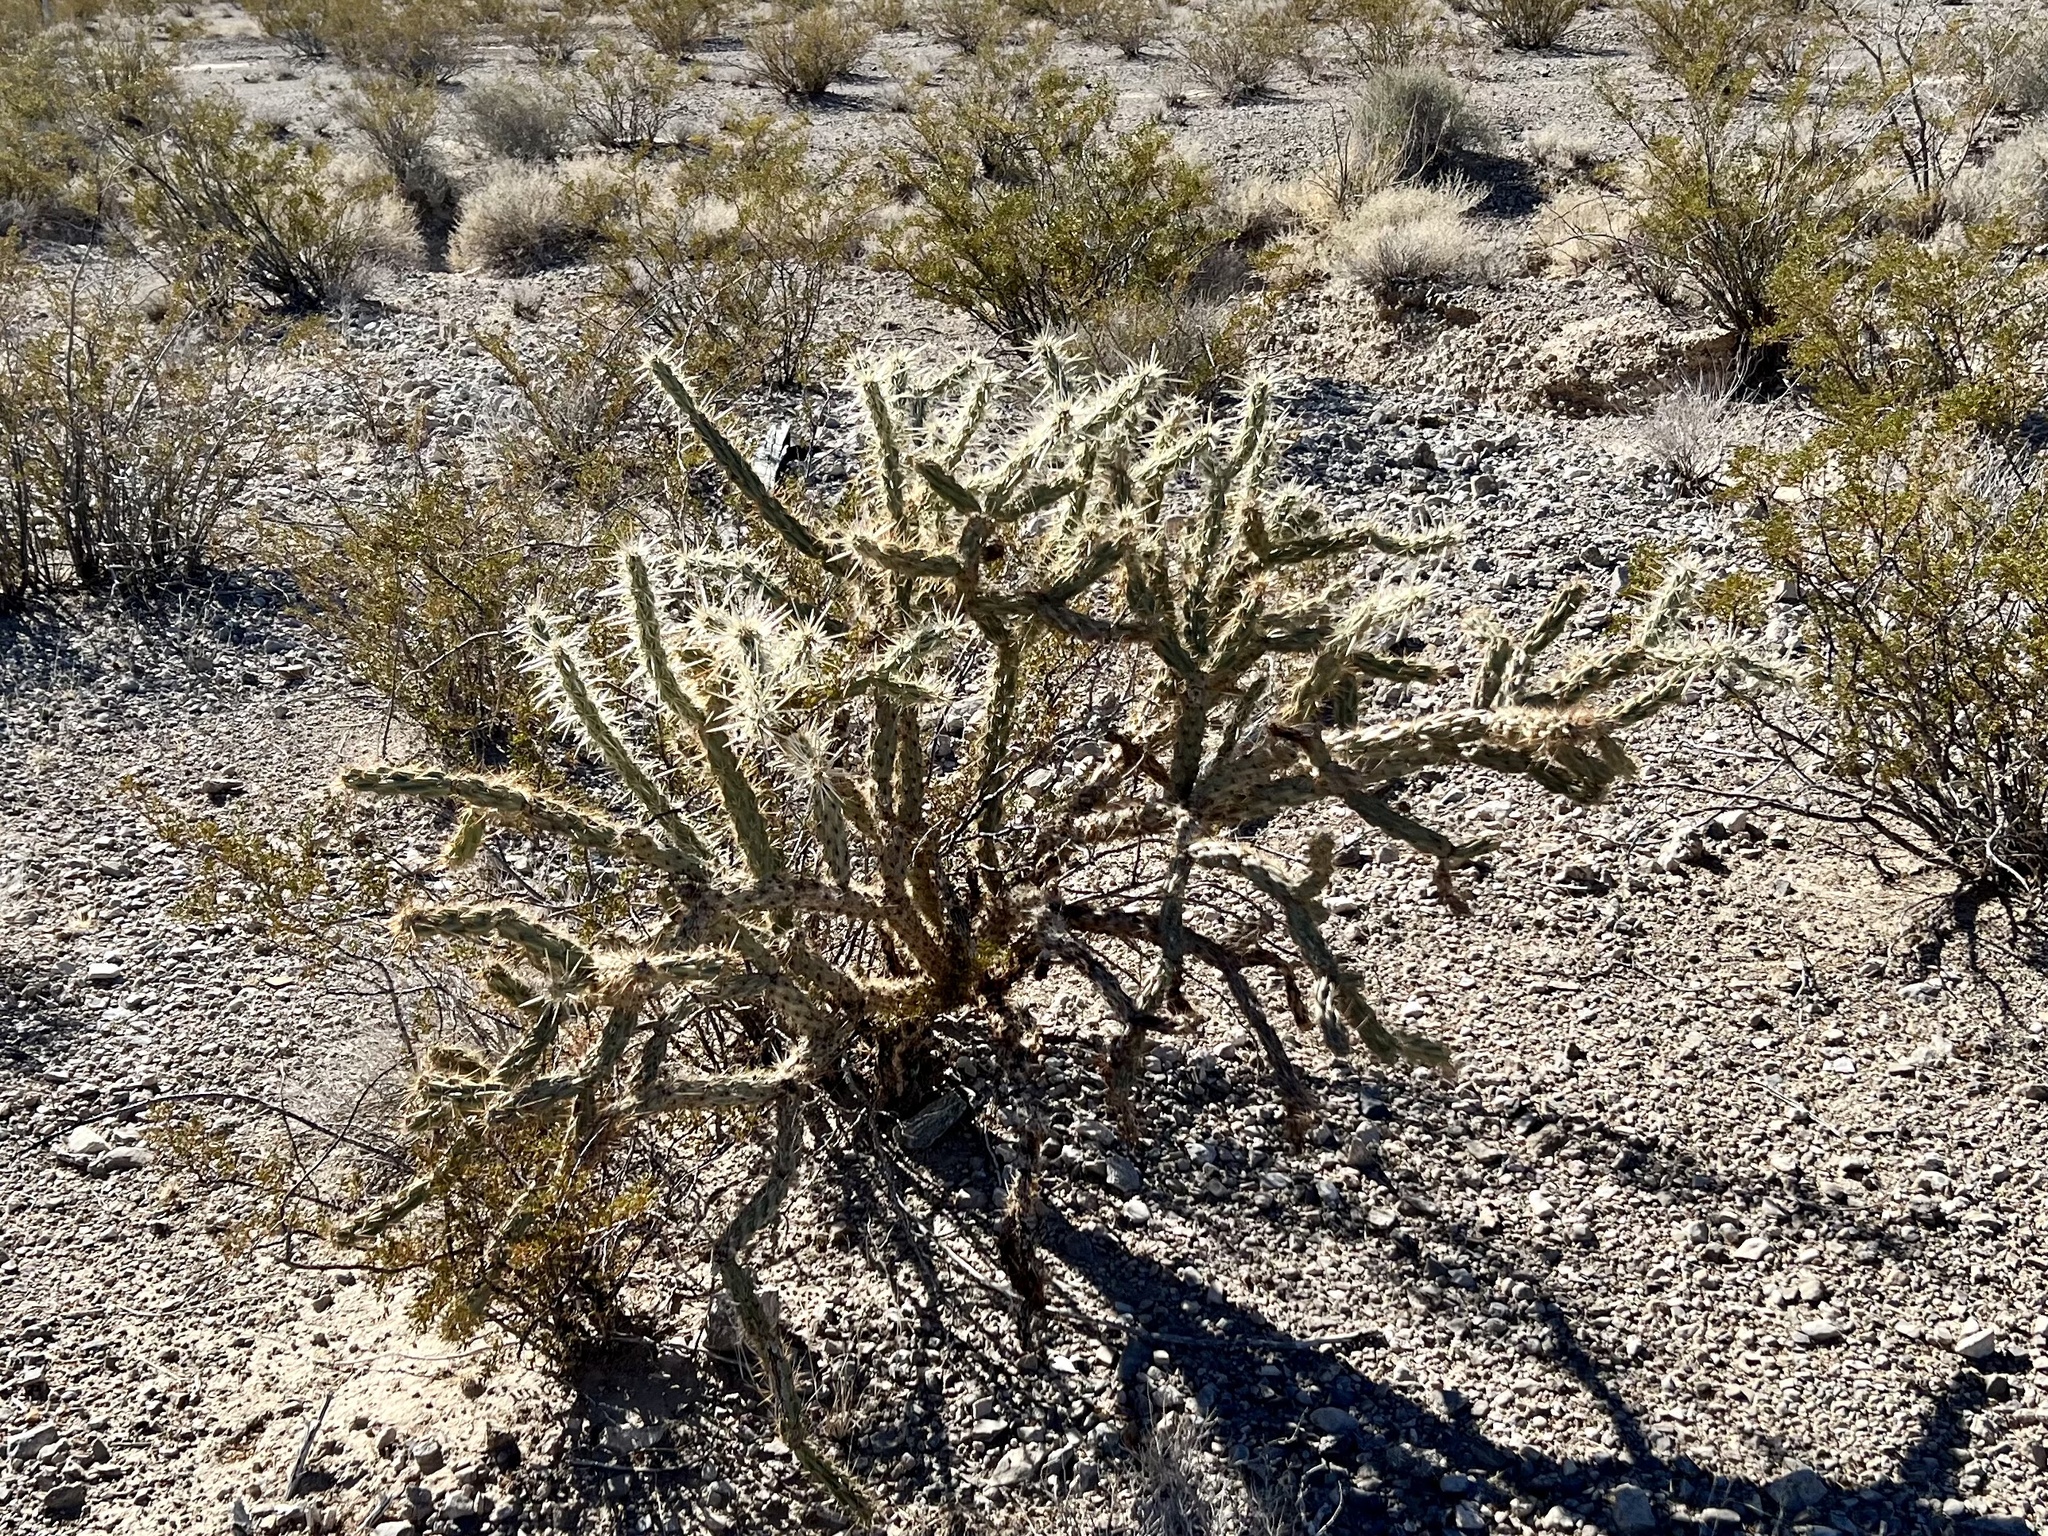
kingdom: Plantae
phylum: Tracheophyta
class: Magnoliopsida
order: Caryophyllales
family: Cactaceae
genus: Cylindropuntia
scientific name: Cylindropuntia acanthocarpa
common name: Buckhorn cholla
